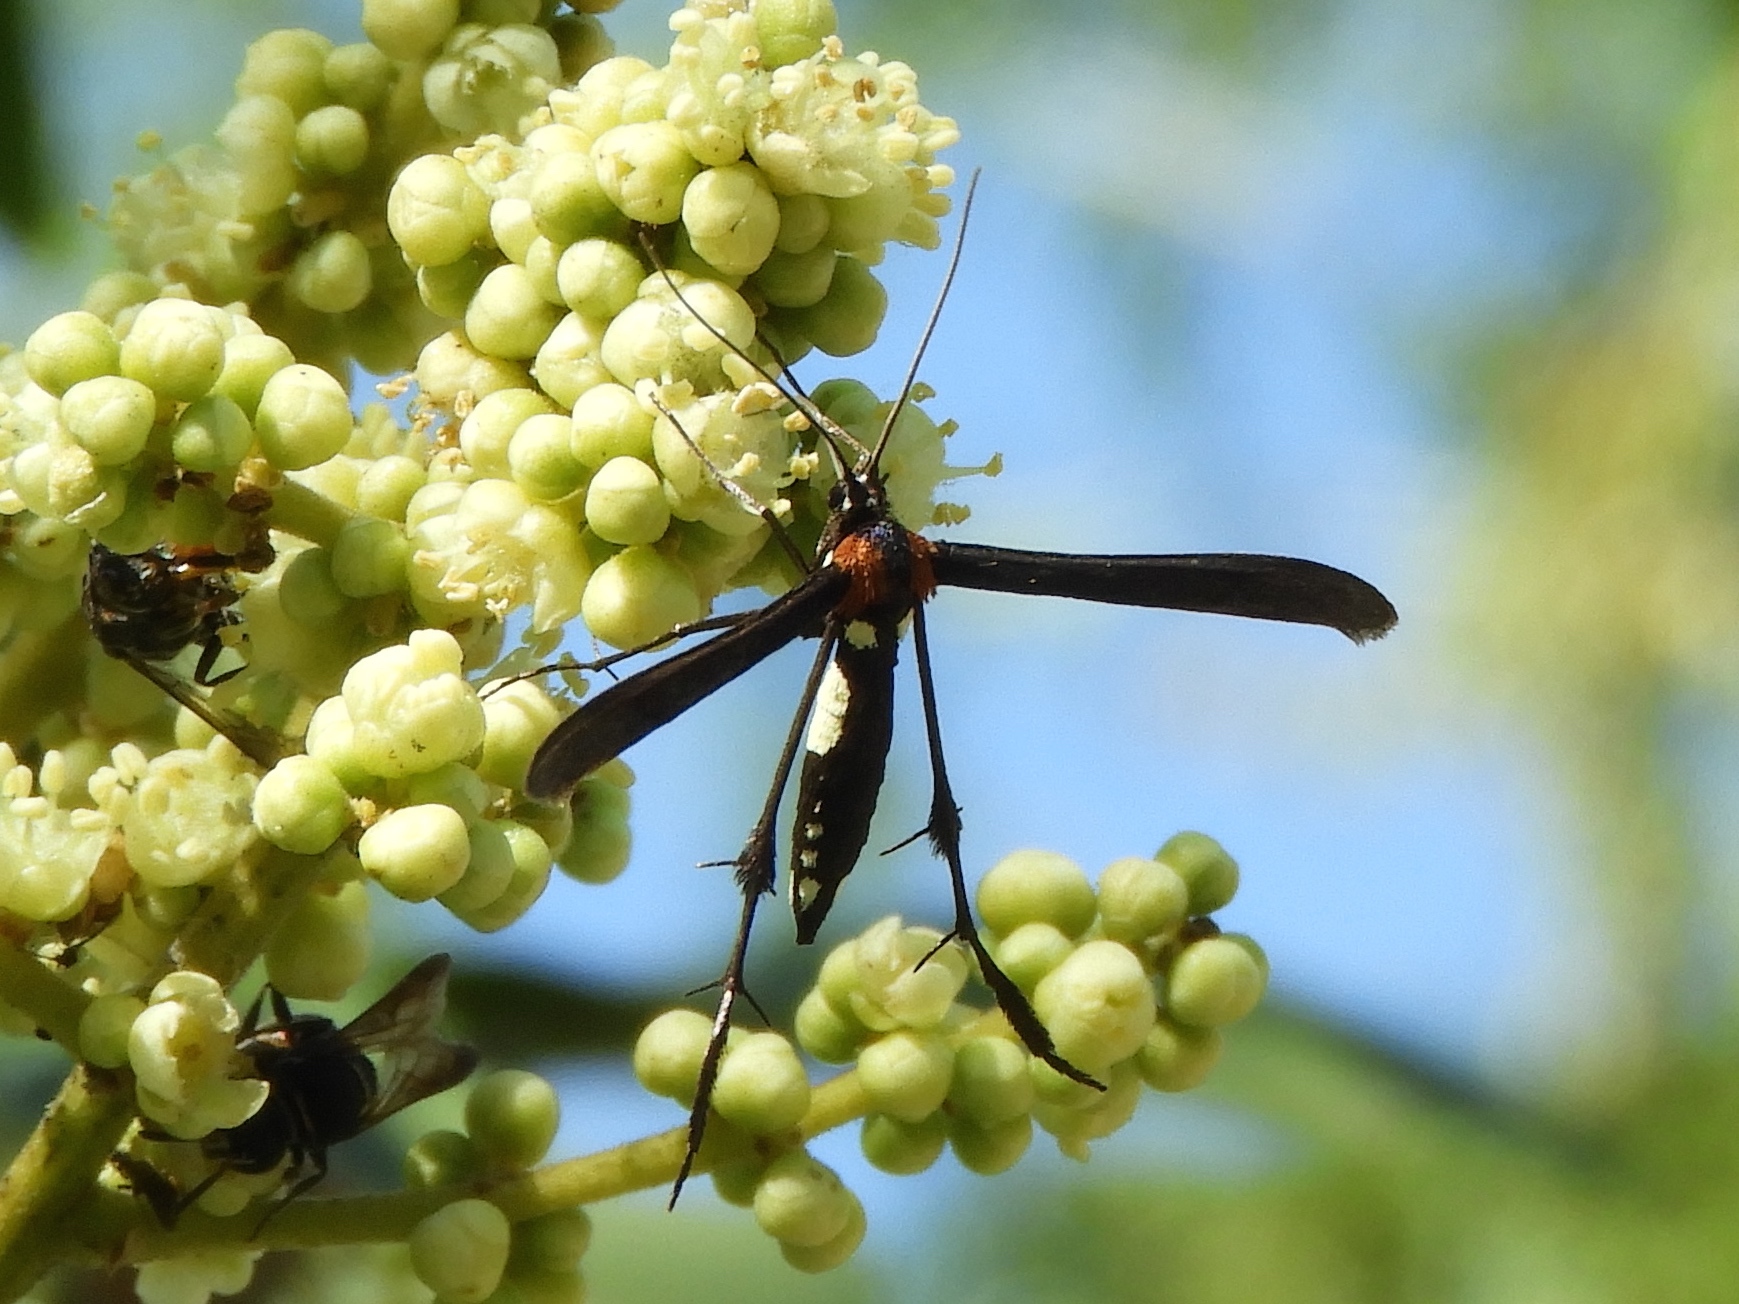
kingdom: Animalia
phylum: Arthropoda
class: Insecta
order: Lepidoptera
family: Pterophoridae
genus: Hellinsia
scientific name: Hellinsia chamelai
